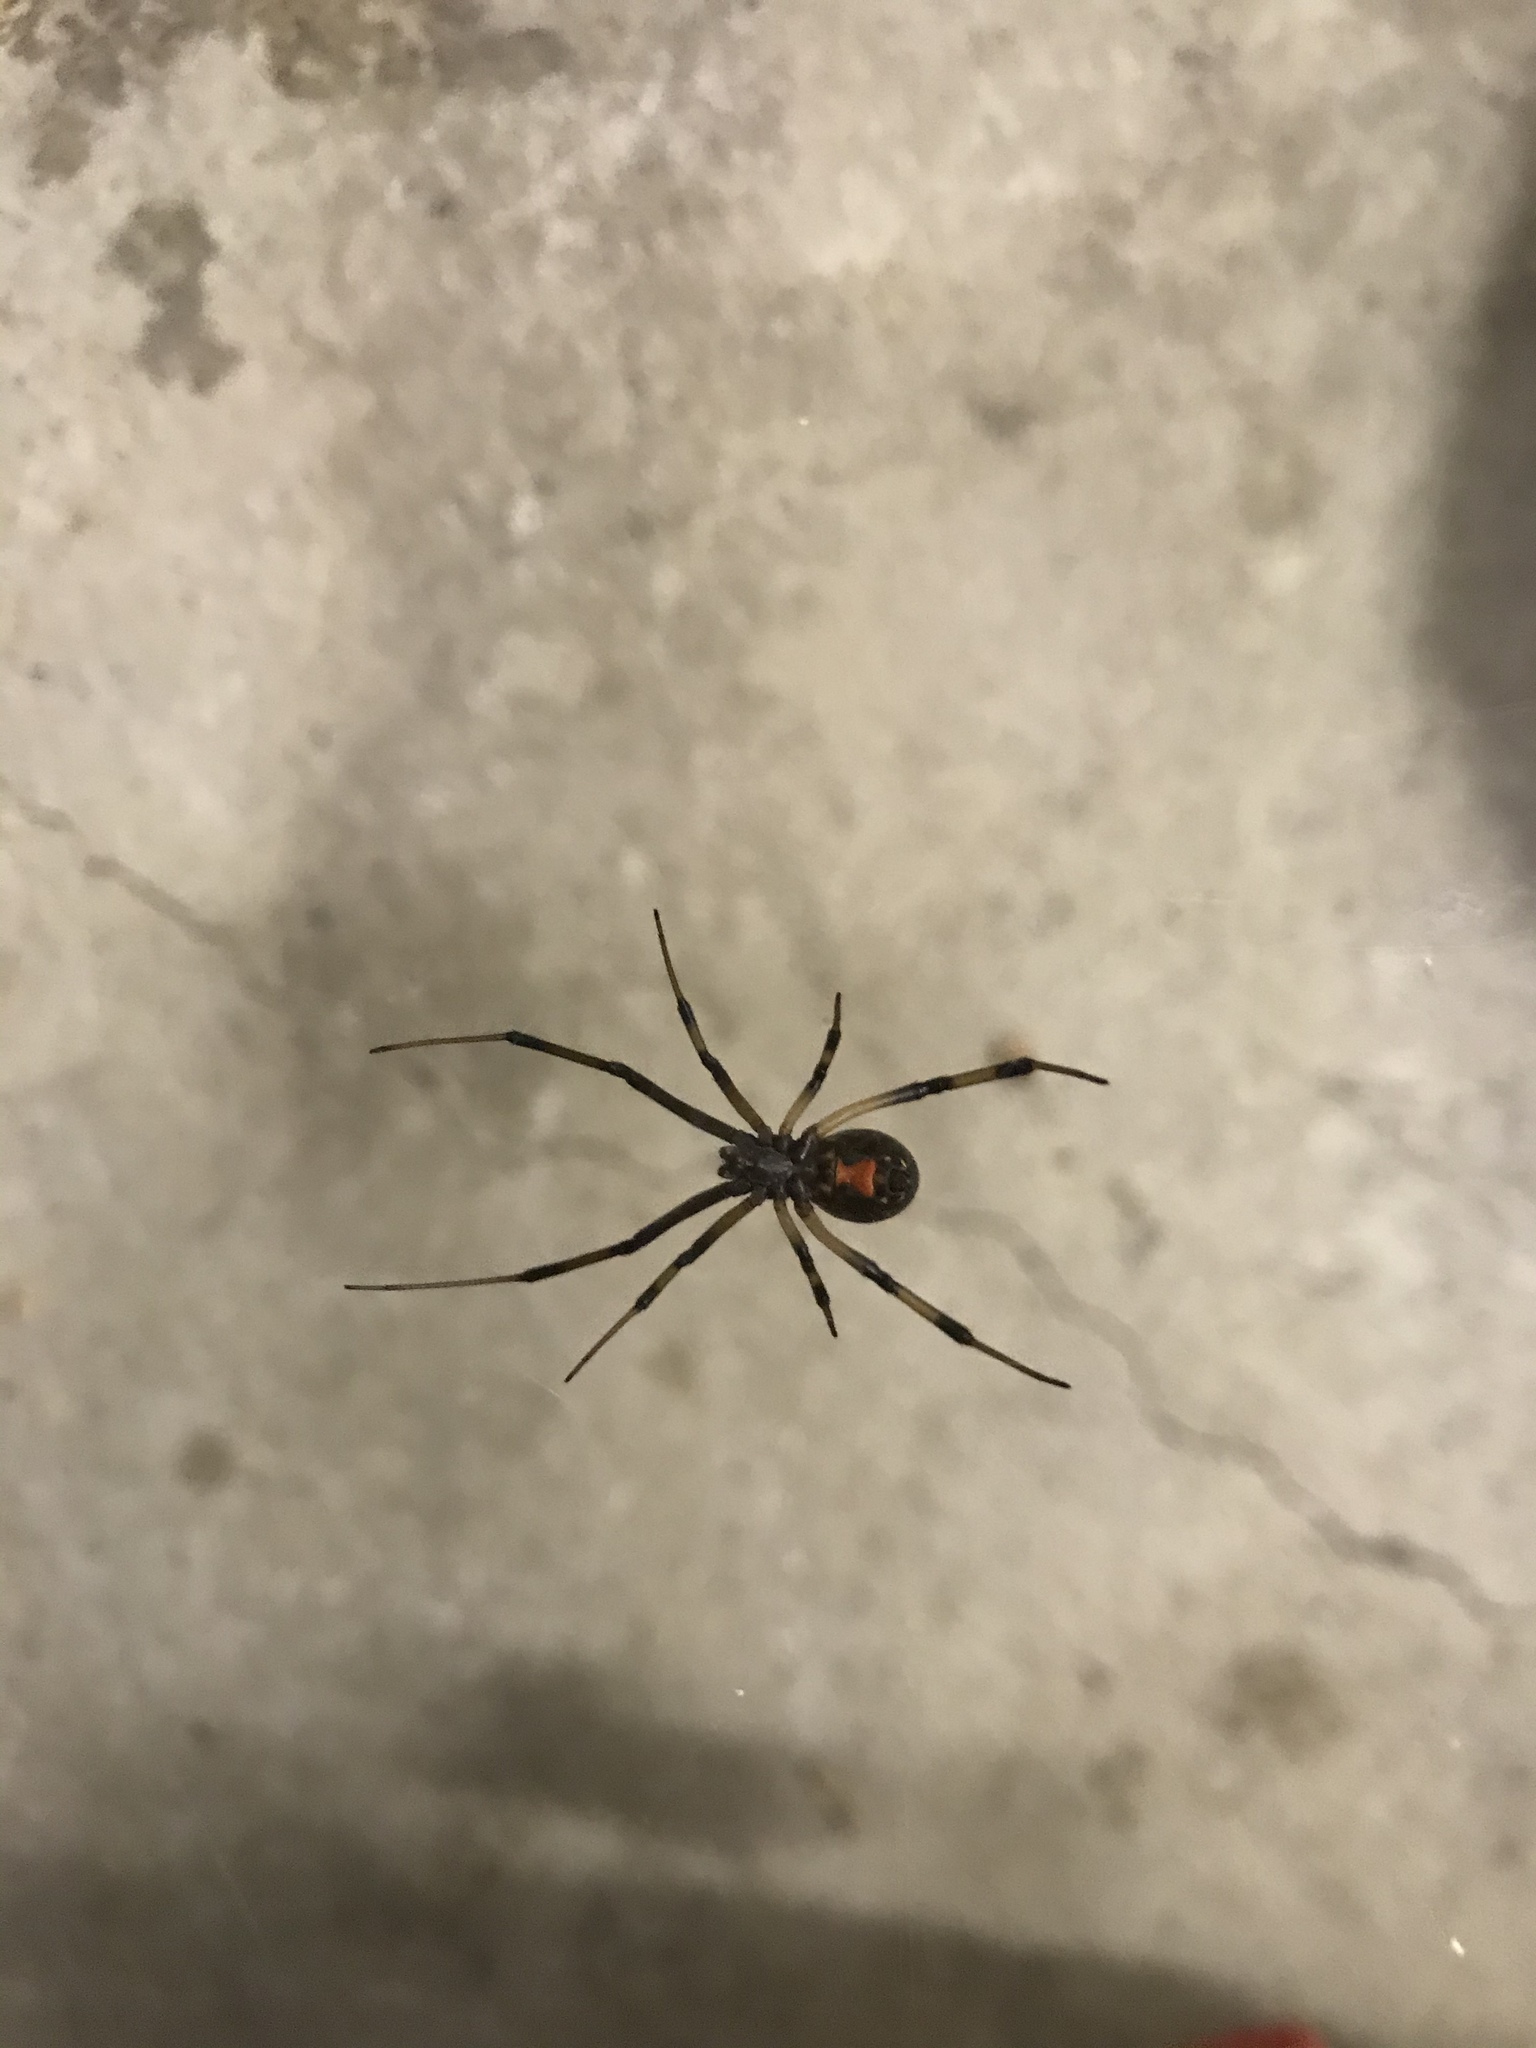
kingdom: Animalia
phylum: Arthropoda
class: Arachnida
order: Araneae
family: Theridiidae
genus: Latrodectus
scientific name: Latrodectus geometricus
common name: Brown widow spider
